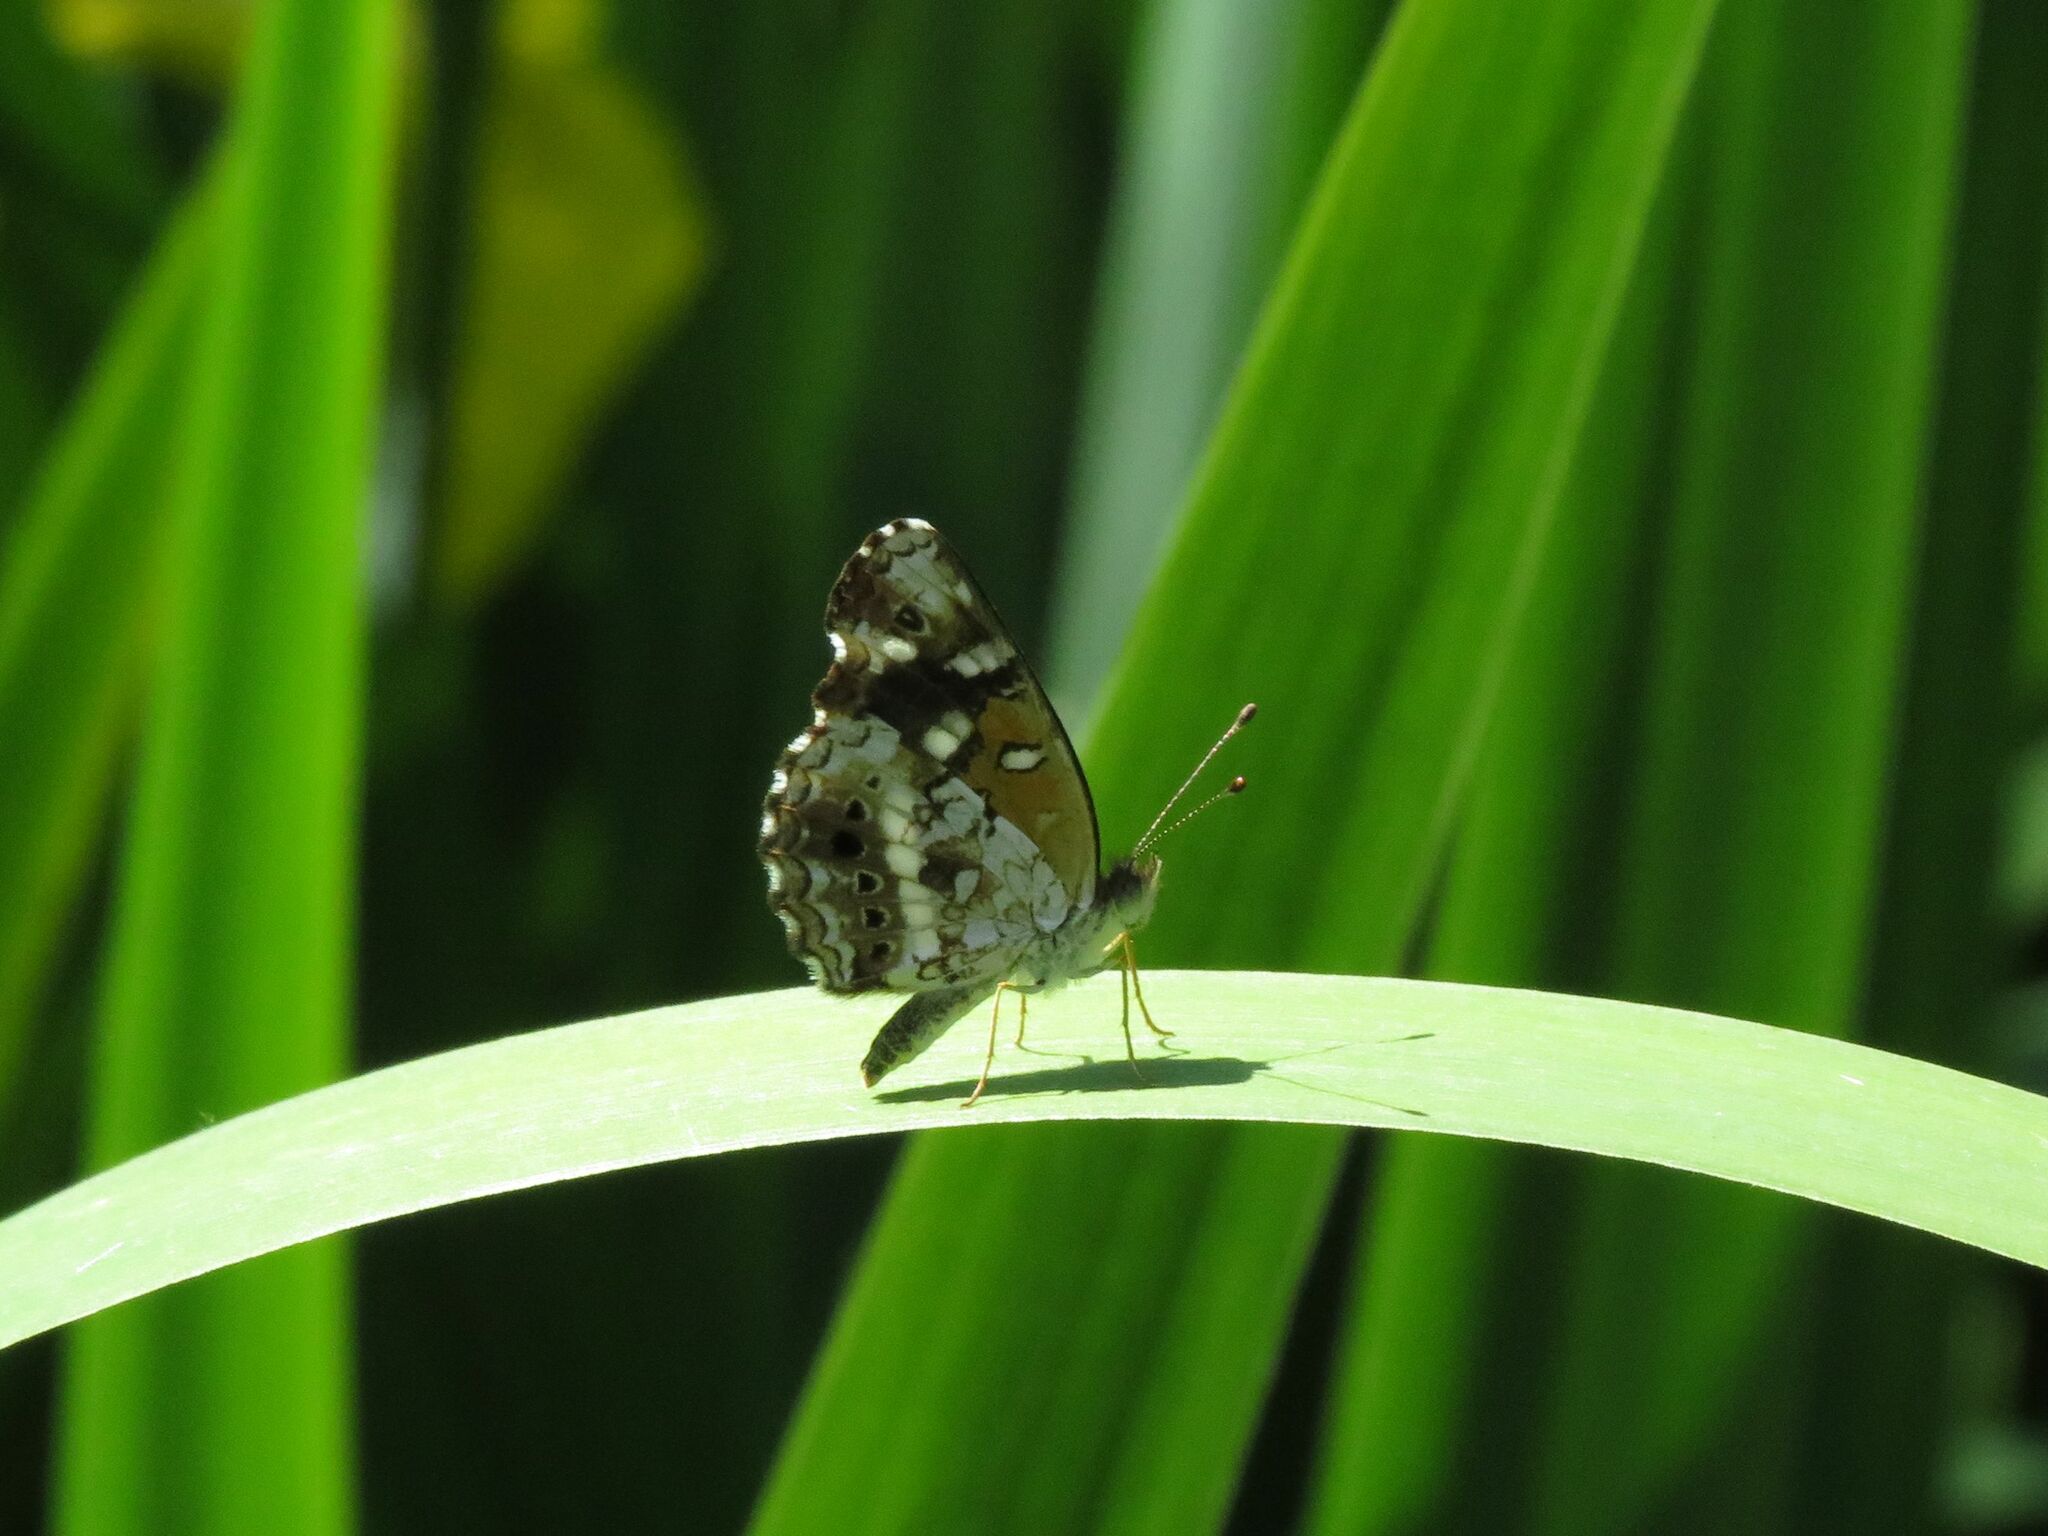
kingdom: Animalia
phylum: Arthropoda
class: Insecta
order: Lepidoptera
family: Nymphalidae
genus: Ortilia
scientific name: Ortilia ithra
